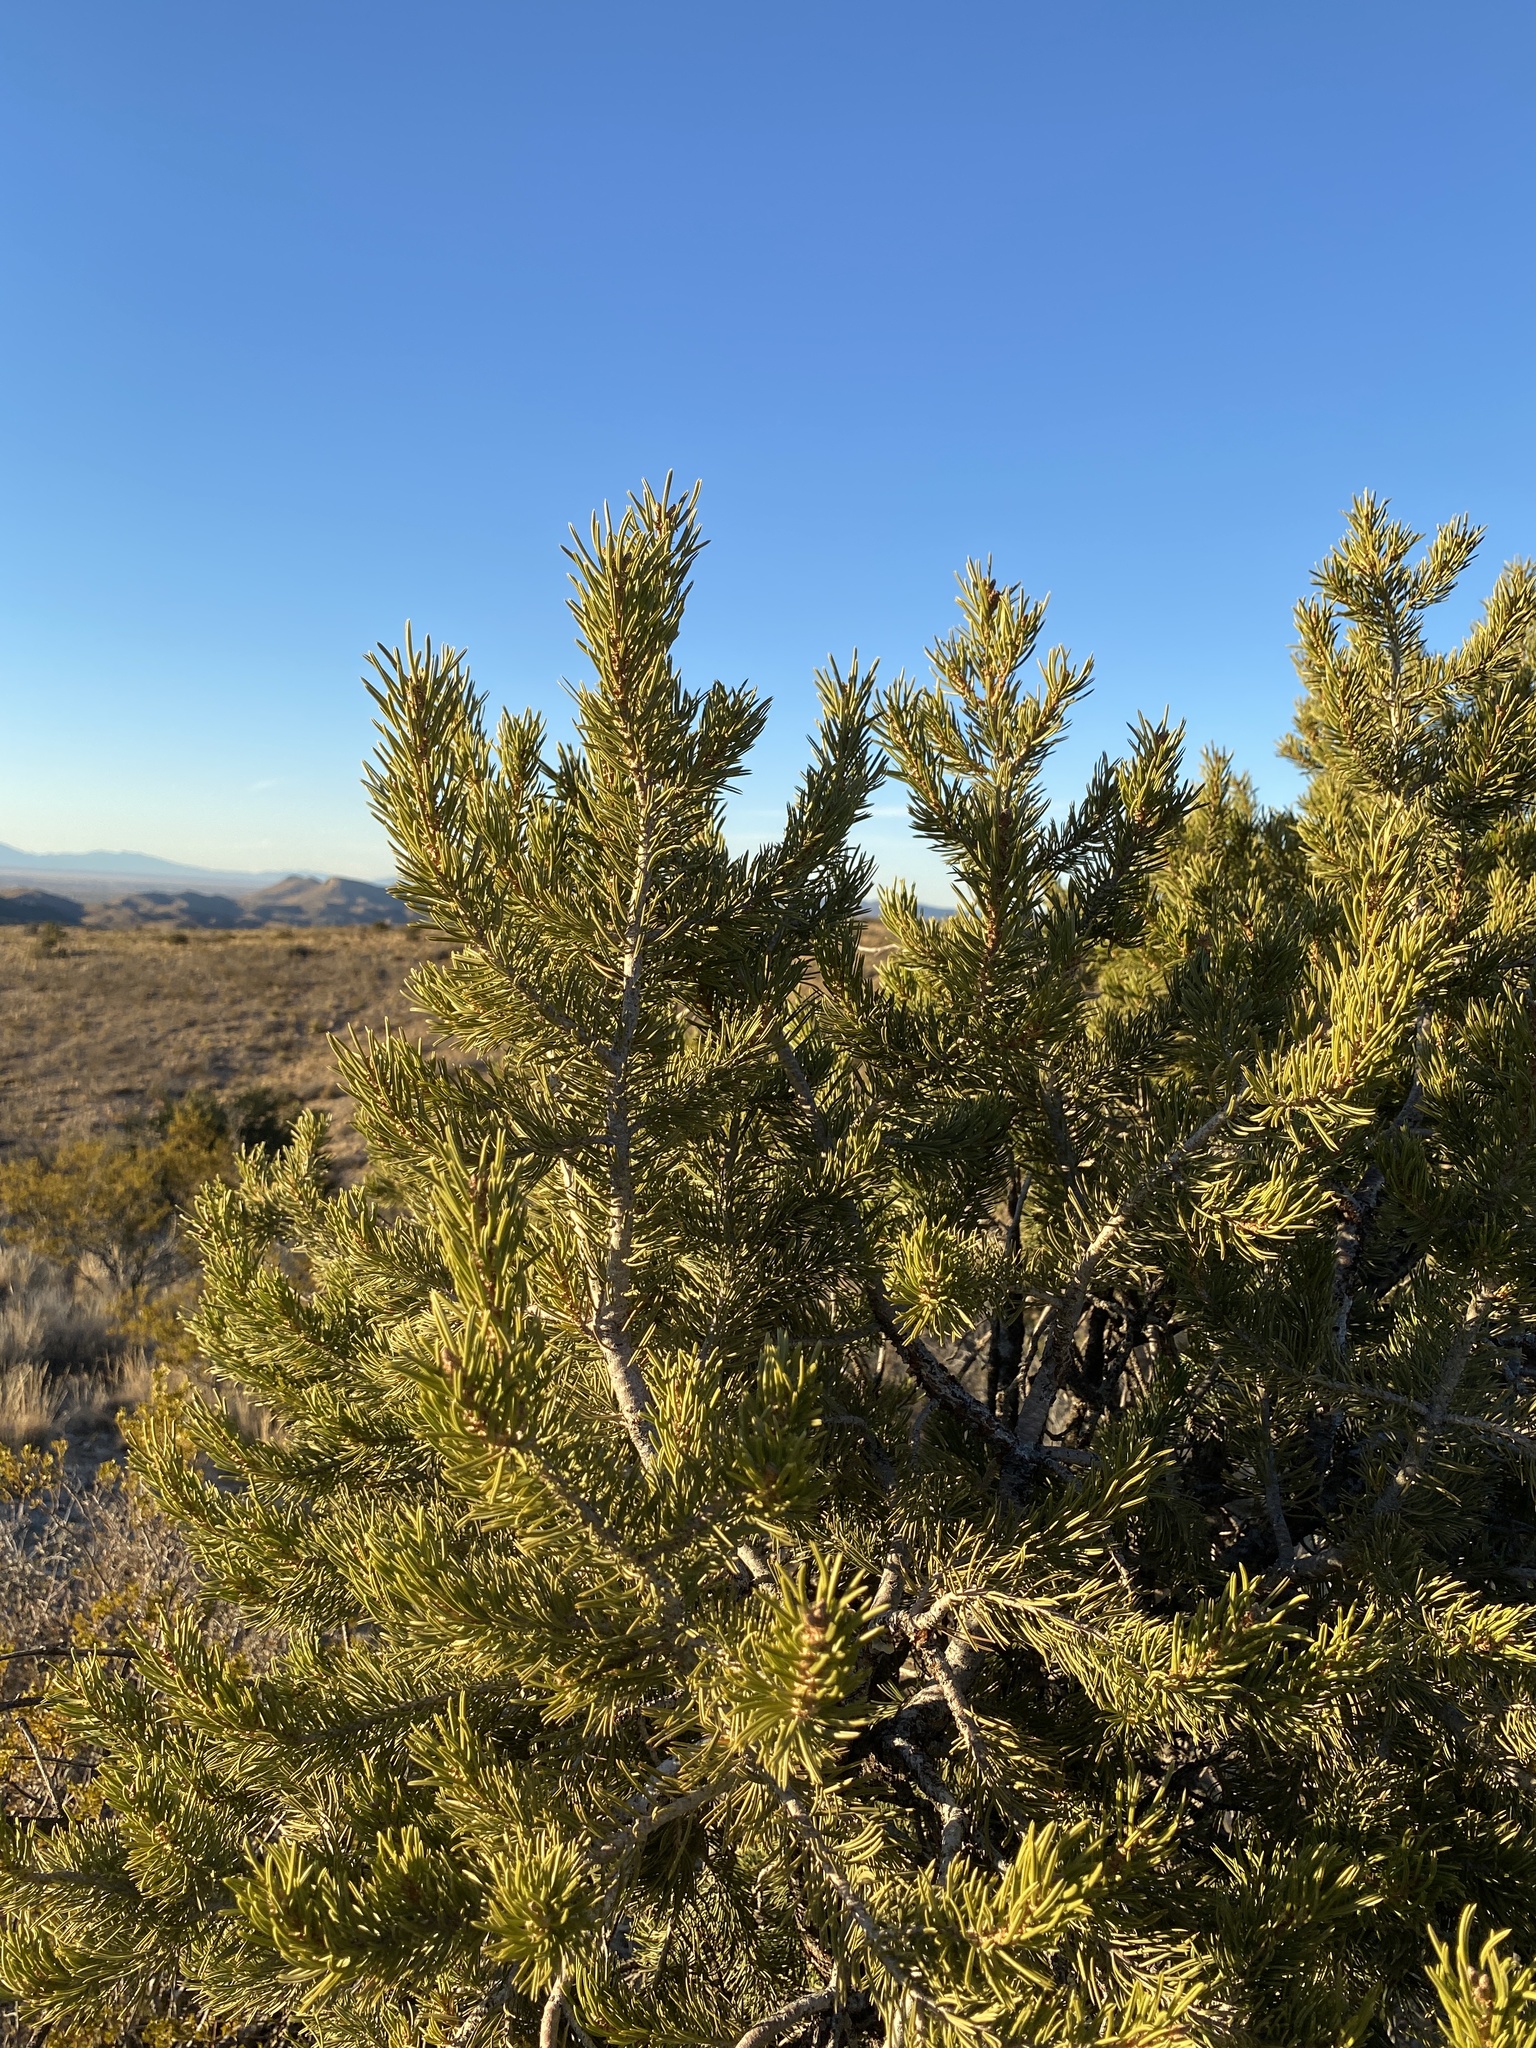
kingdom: Plantae
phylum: Tracheophyta
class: Pinopsida
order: Pinales
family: Pinaceae
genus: Pinus
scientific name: Pinus edulis
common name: Colorado pinyon
